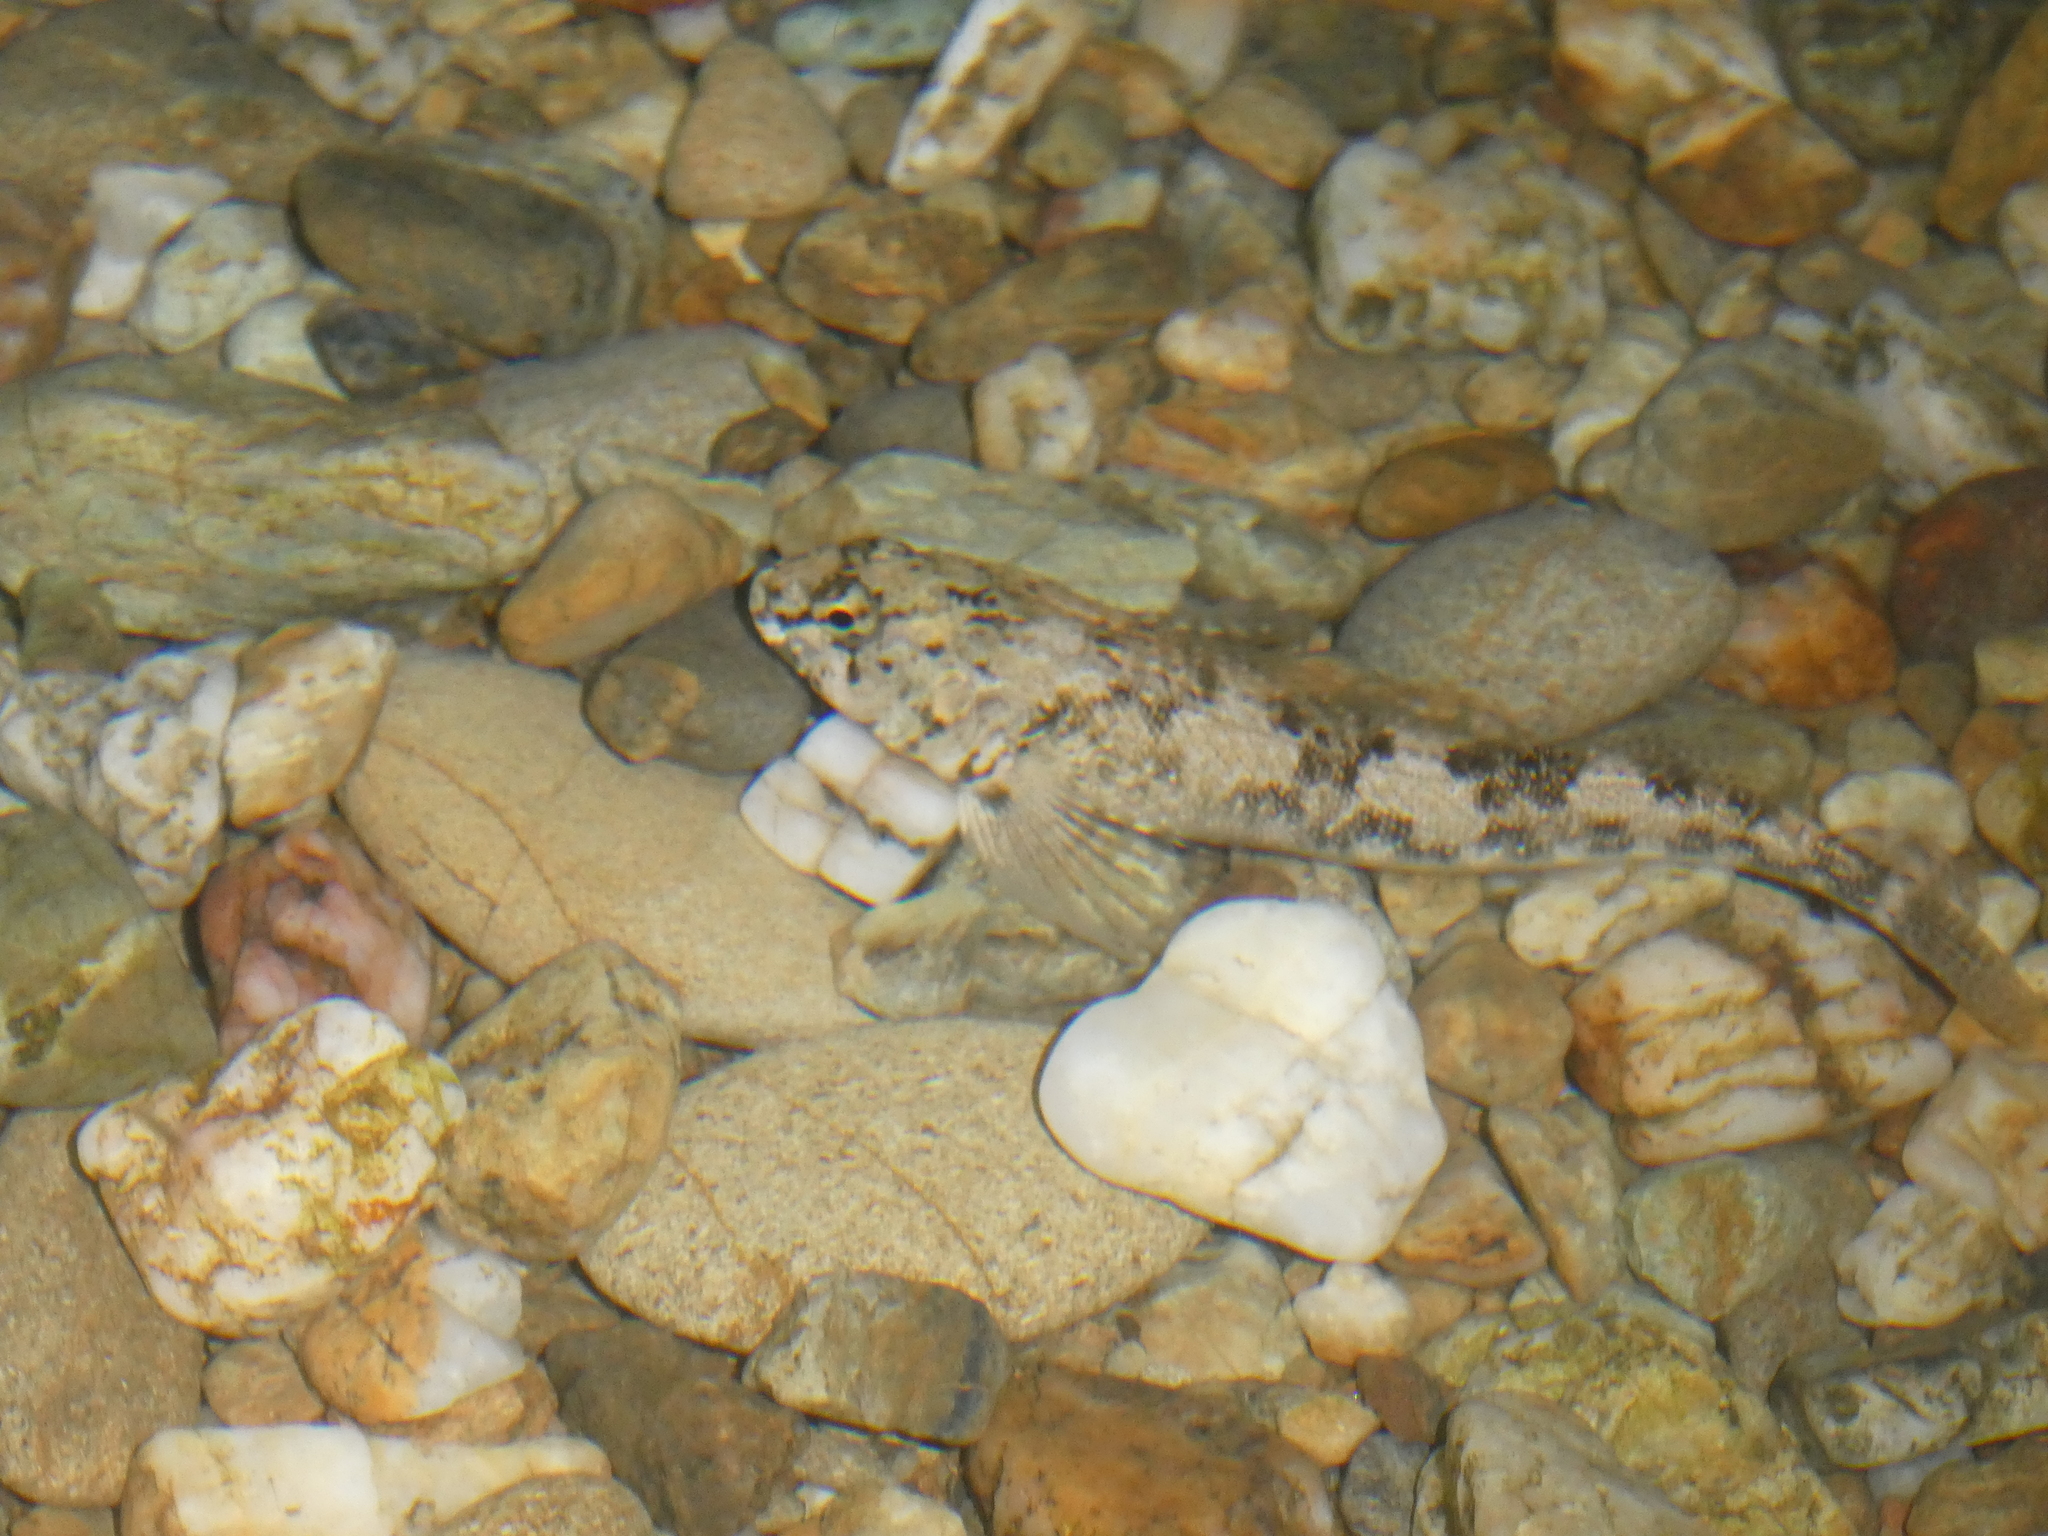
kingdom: Animalia
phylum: Chordata
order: Perciformes
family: Tripterygiidae
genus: Bellapiscis
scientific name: Bellapiscis medius
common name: Twister
